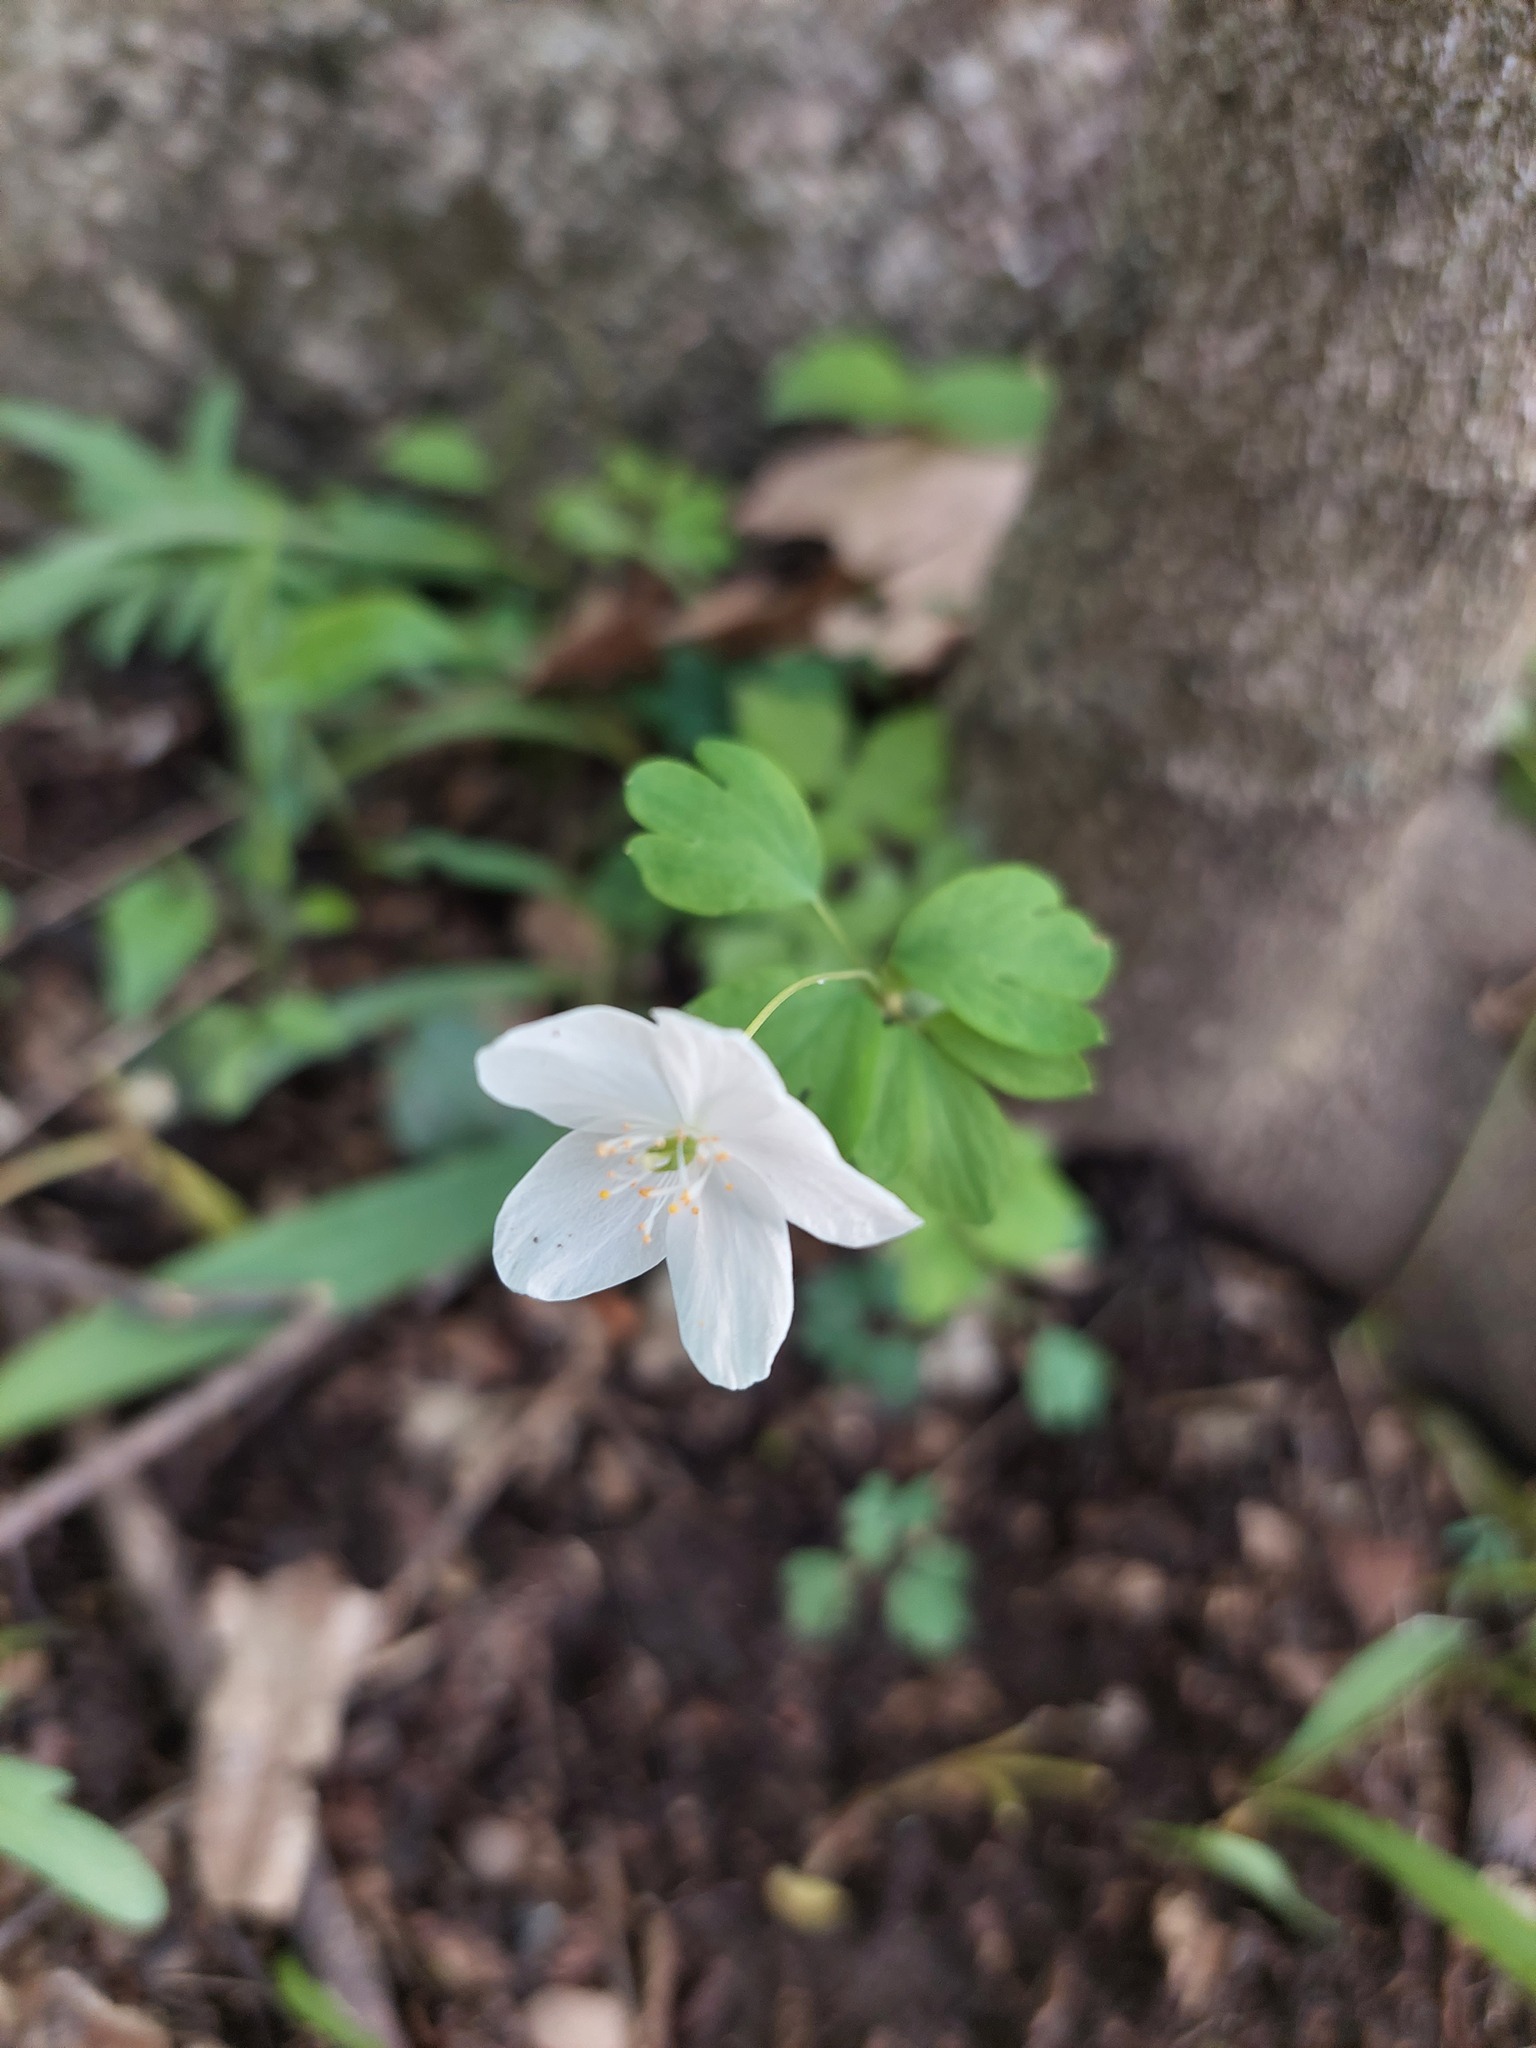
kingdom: Plantae
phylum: Tracheophyta
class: Magnoliopsida
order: Ranunculales
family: Ranunculaceae
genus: Enemion
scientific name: Enemion biternatum
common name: Eastern false rue-anemone
